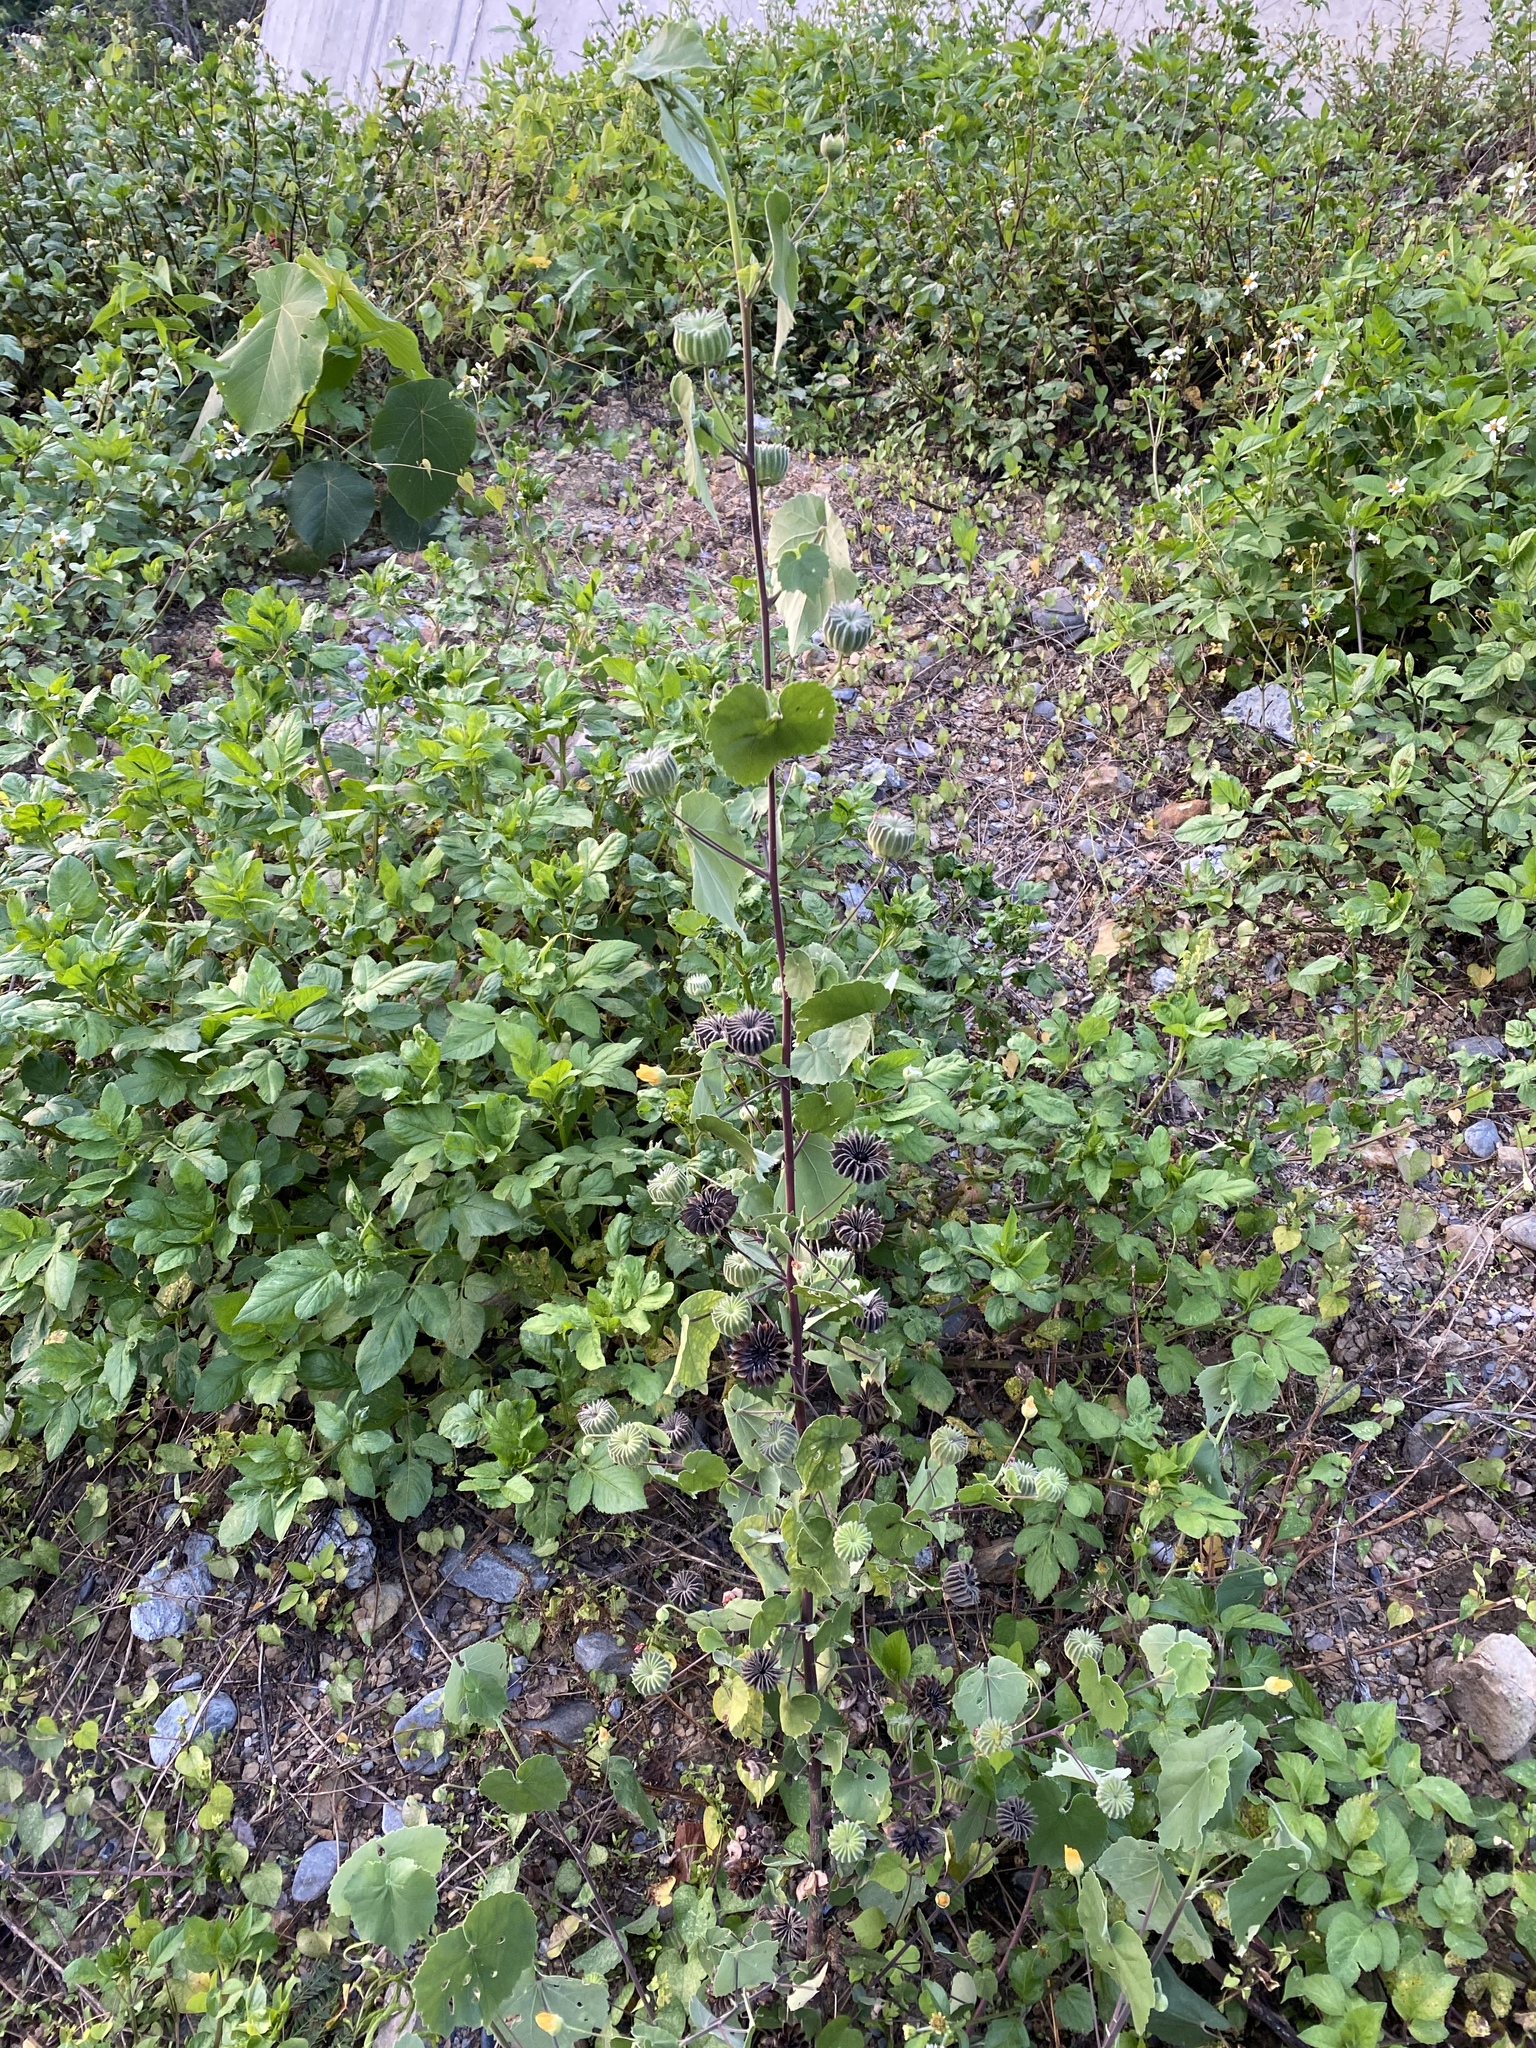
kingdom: Plantae
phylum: Tracheophyta
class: Magnoliopsida
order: Malvales
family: Malvaceae
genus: Abutilon
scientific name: Abutilon indicum
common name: Indian abutilon
